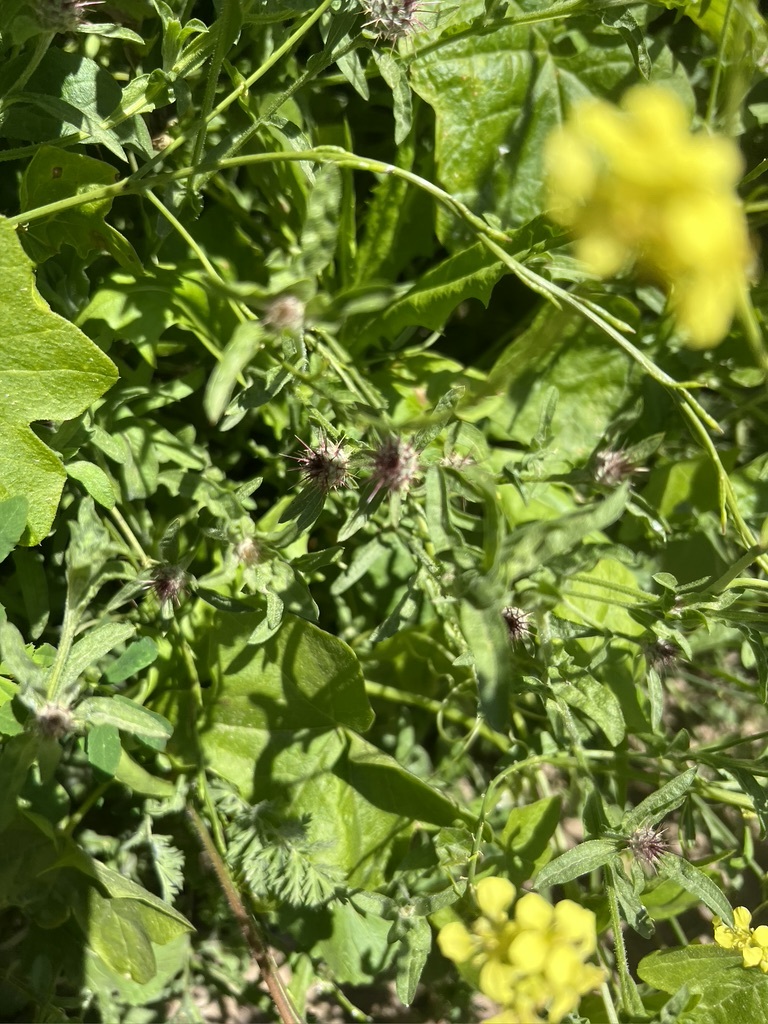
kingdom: Plantae
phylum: Tracheophyta
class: Magnoliopsida
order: Asterales
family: Asteraceae
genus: Centaurea
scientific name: Centaurea melitensis
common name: Maltese star-thistle
